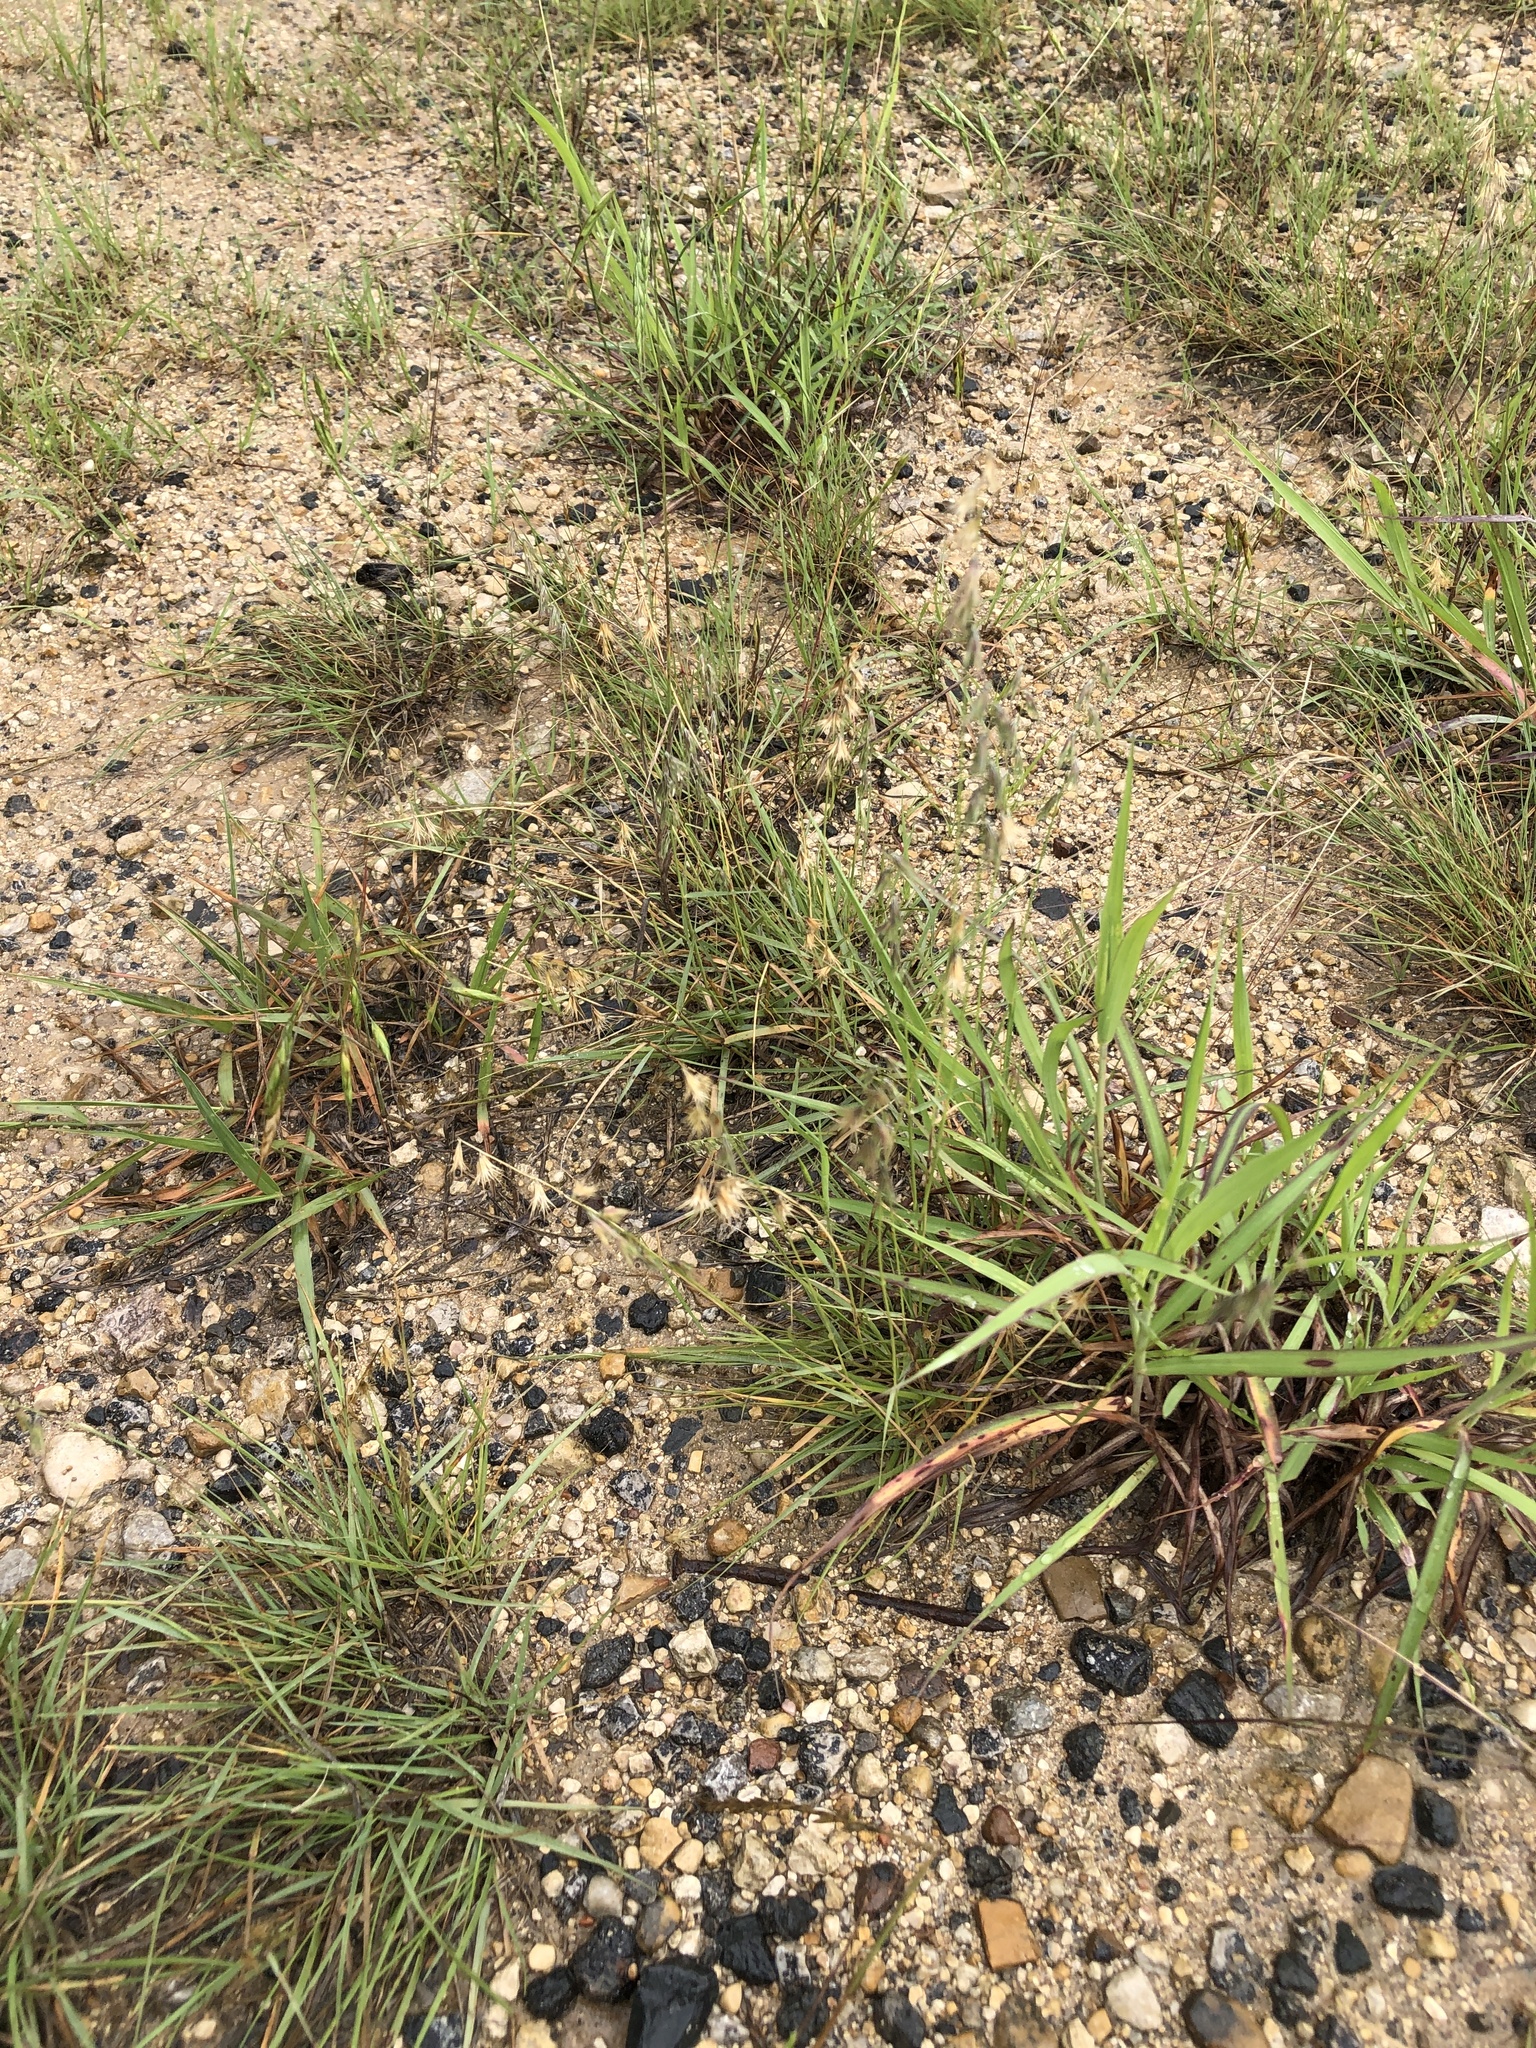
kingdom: Plantae
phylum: Tracheophyta
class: Liliopsida
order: Poales
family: Poaceae
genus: Bouteloua
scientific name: Bouteloua rigidiseta
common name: Texas grama
